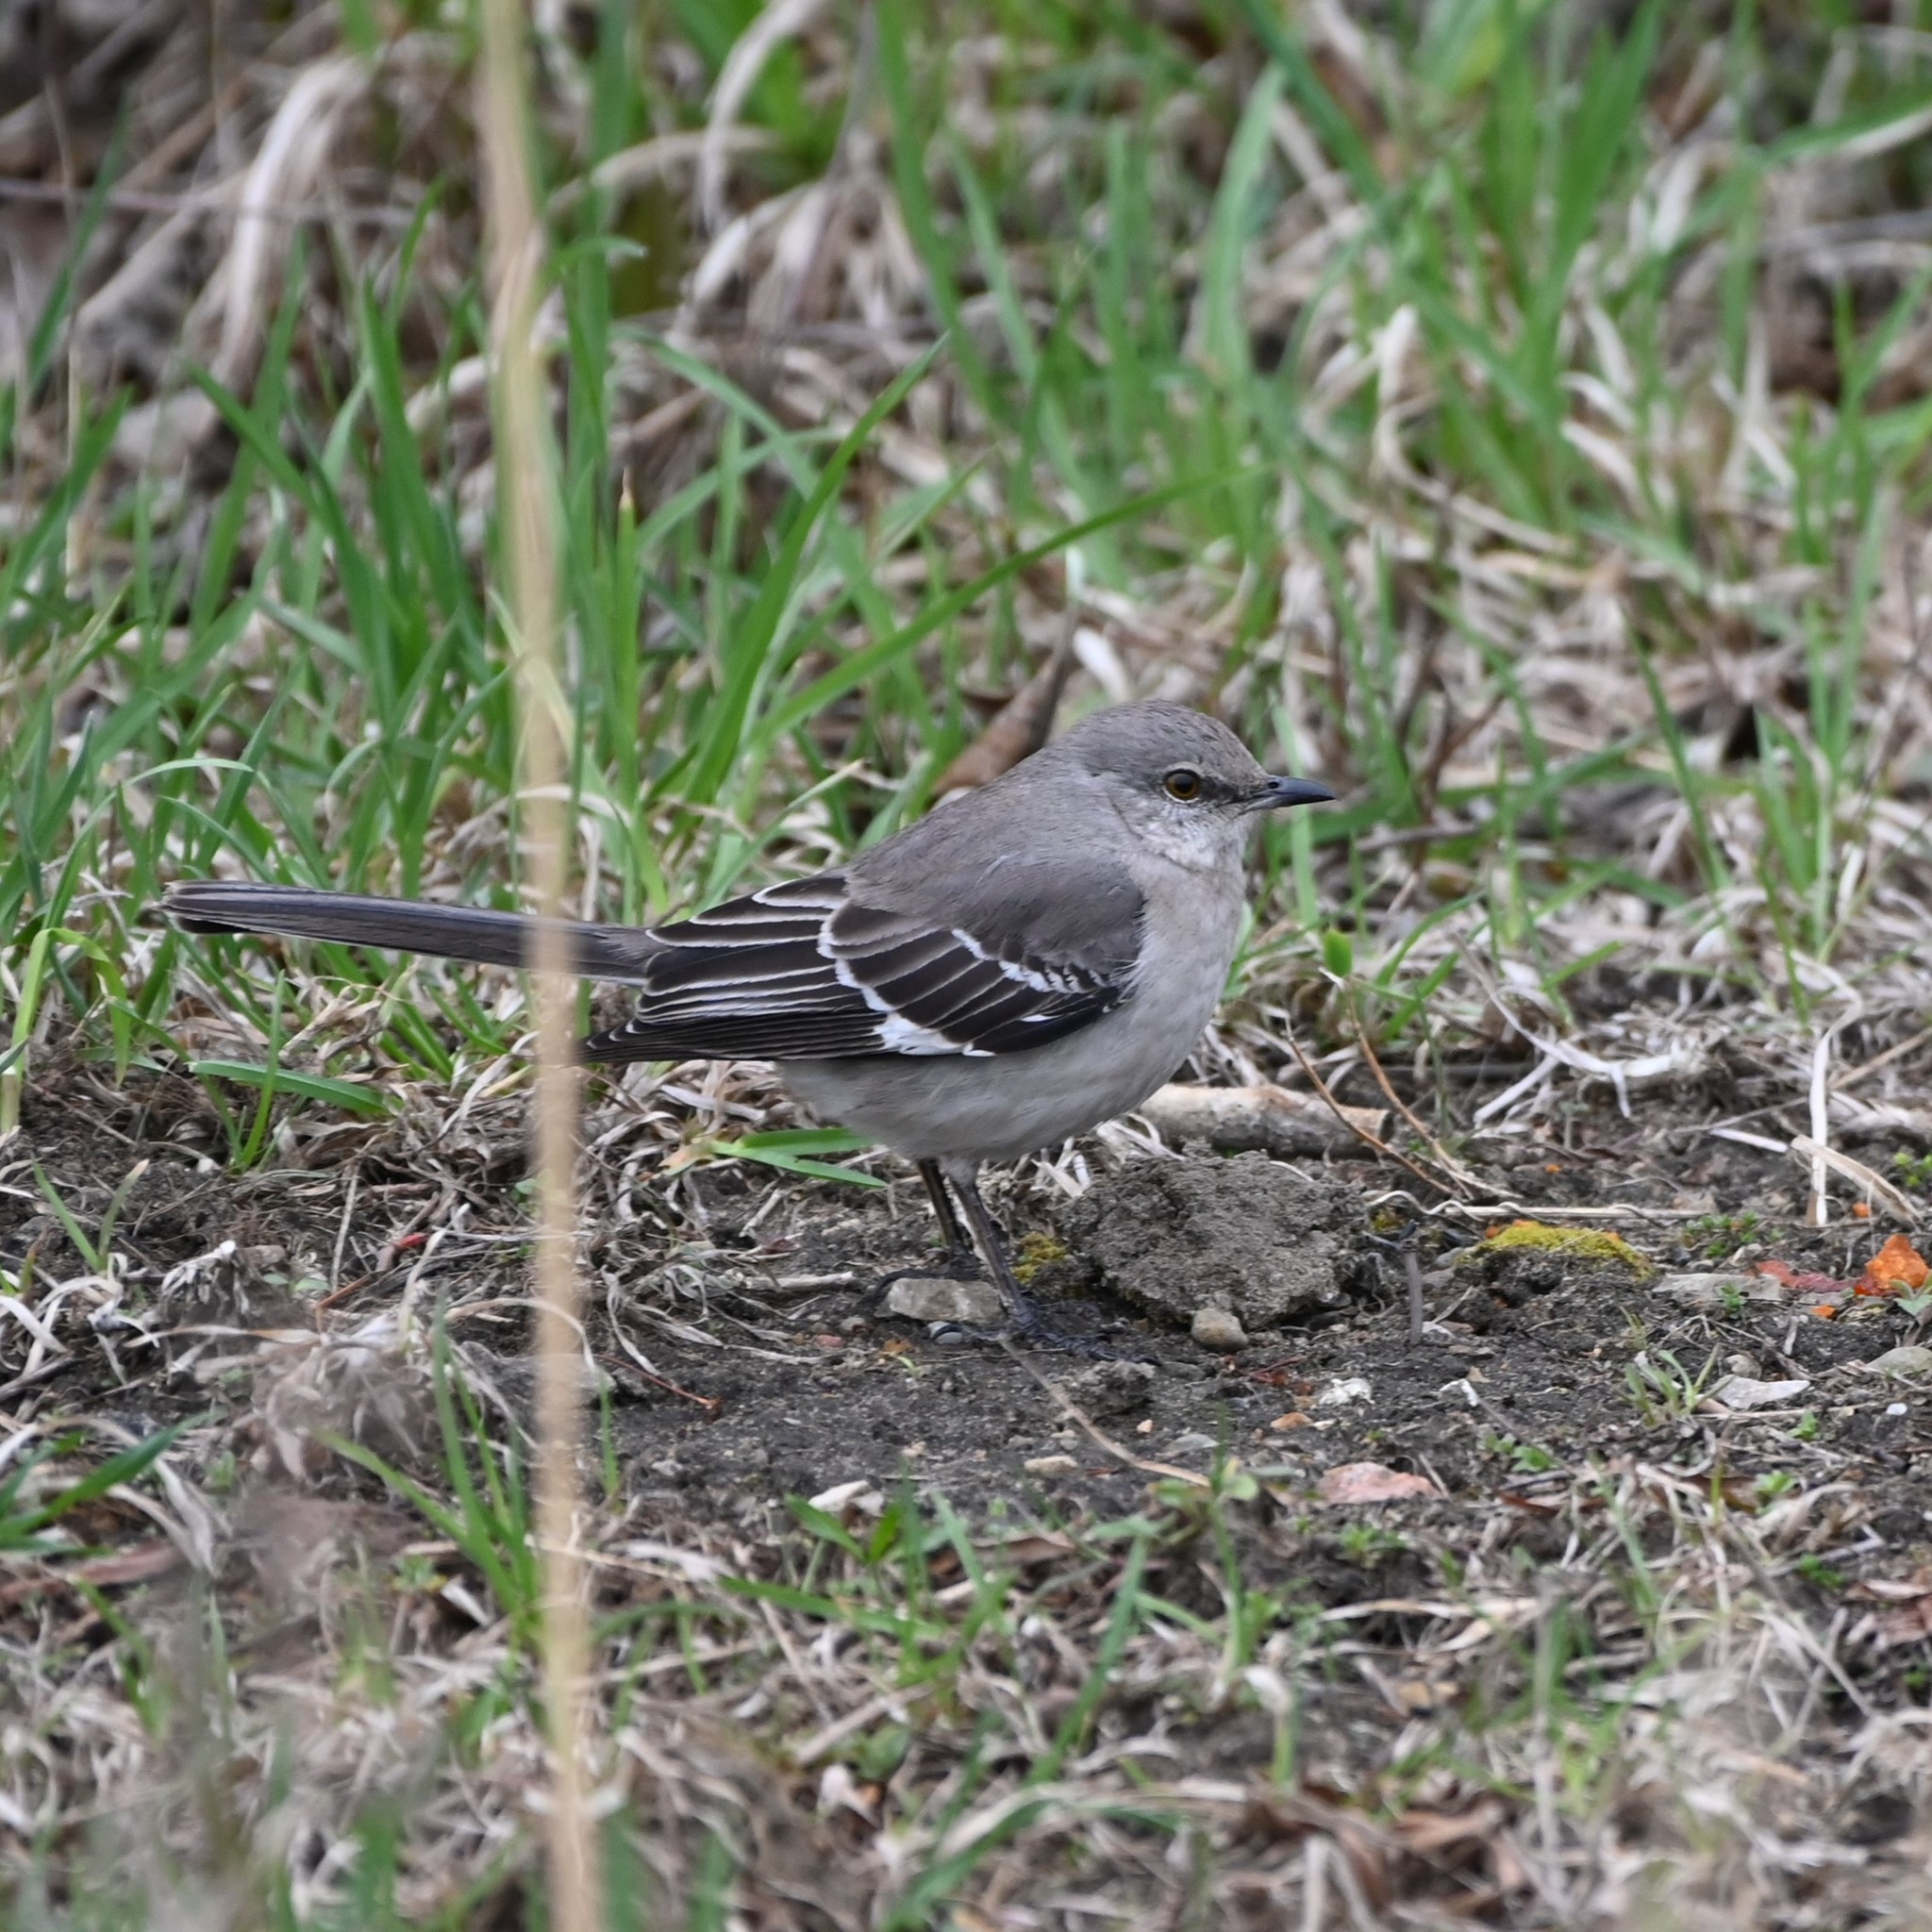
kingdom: Animalia
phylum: Chordata
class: Aves
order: Passeriformes
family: Mimidae
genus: Mimus
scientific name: Mimus polyglottos
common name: Northern mockingbird
